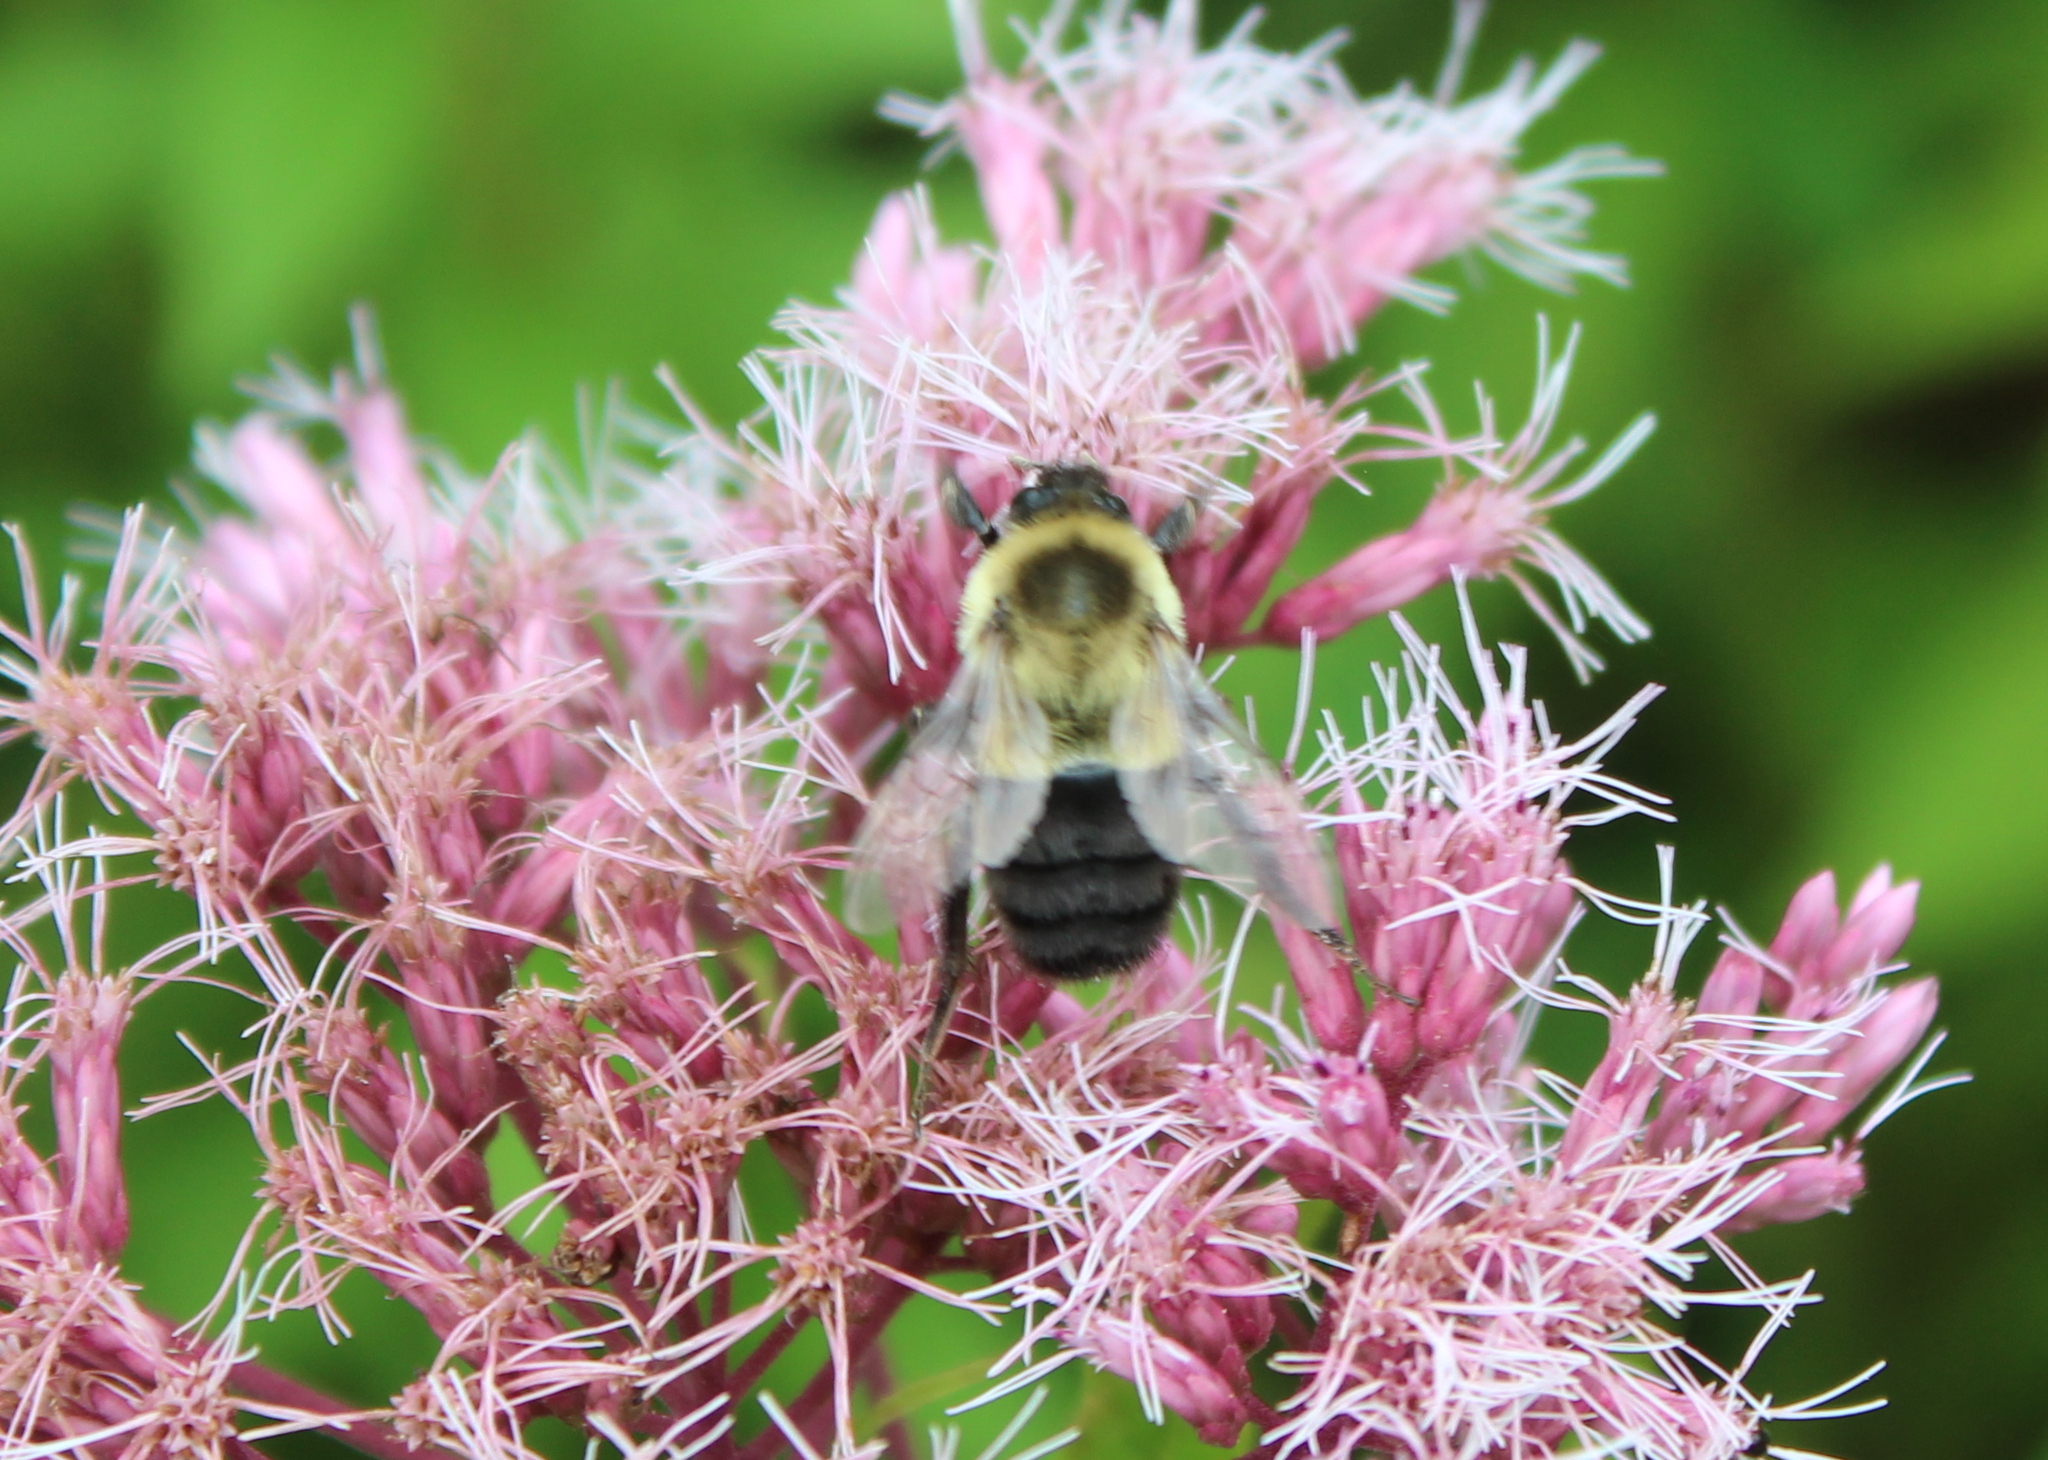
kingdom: Animalia
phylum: Arthropoda
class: Insecta
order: Hymenoptera
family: Apidae
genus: Bombus
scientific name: Bombus impatiens
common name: Common eastern bumble bee
